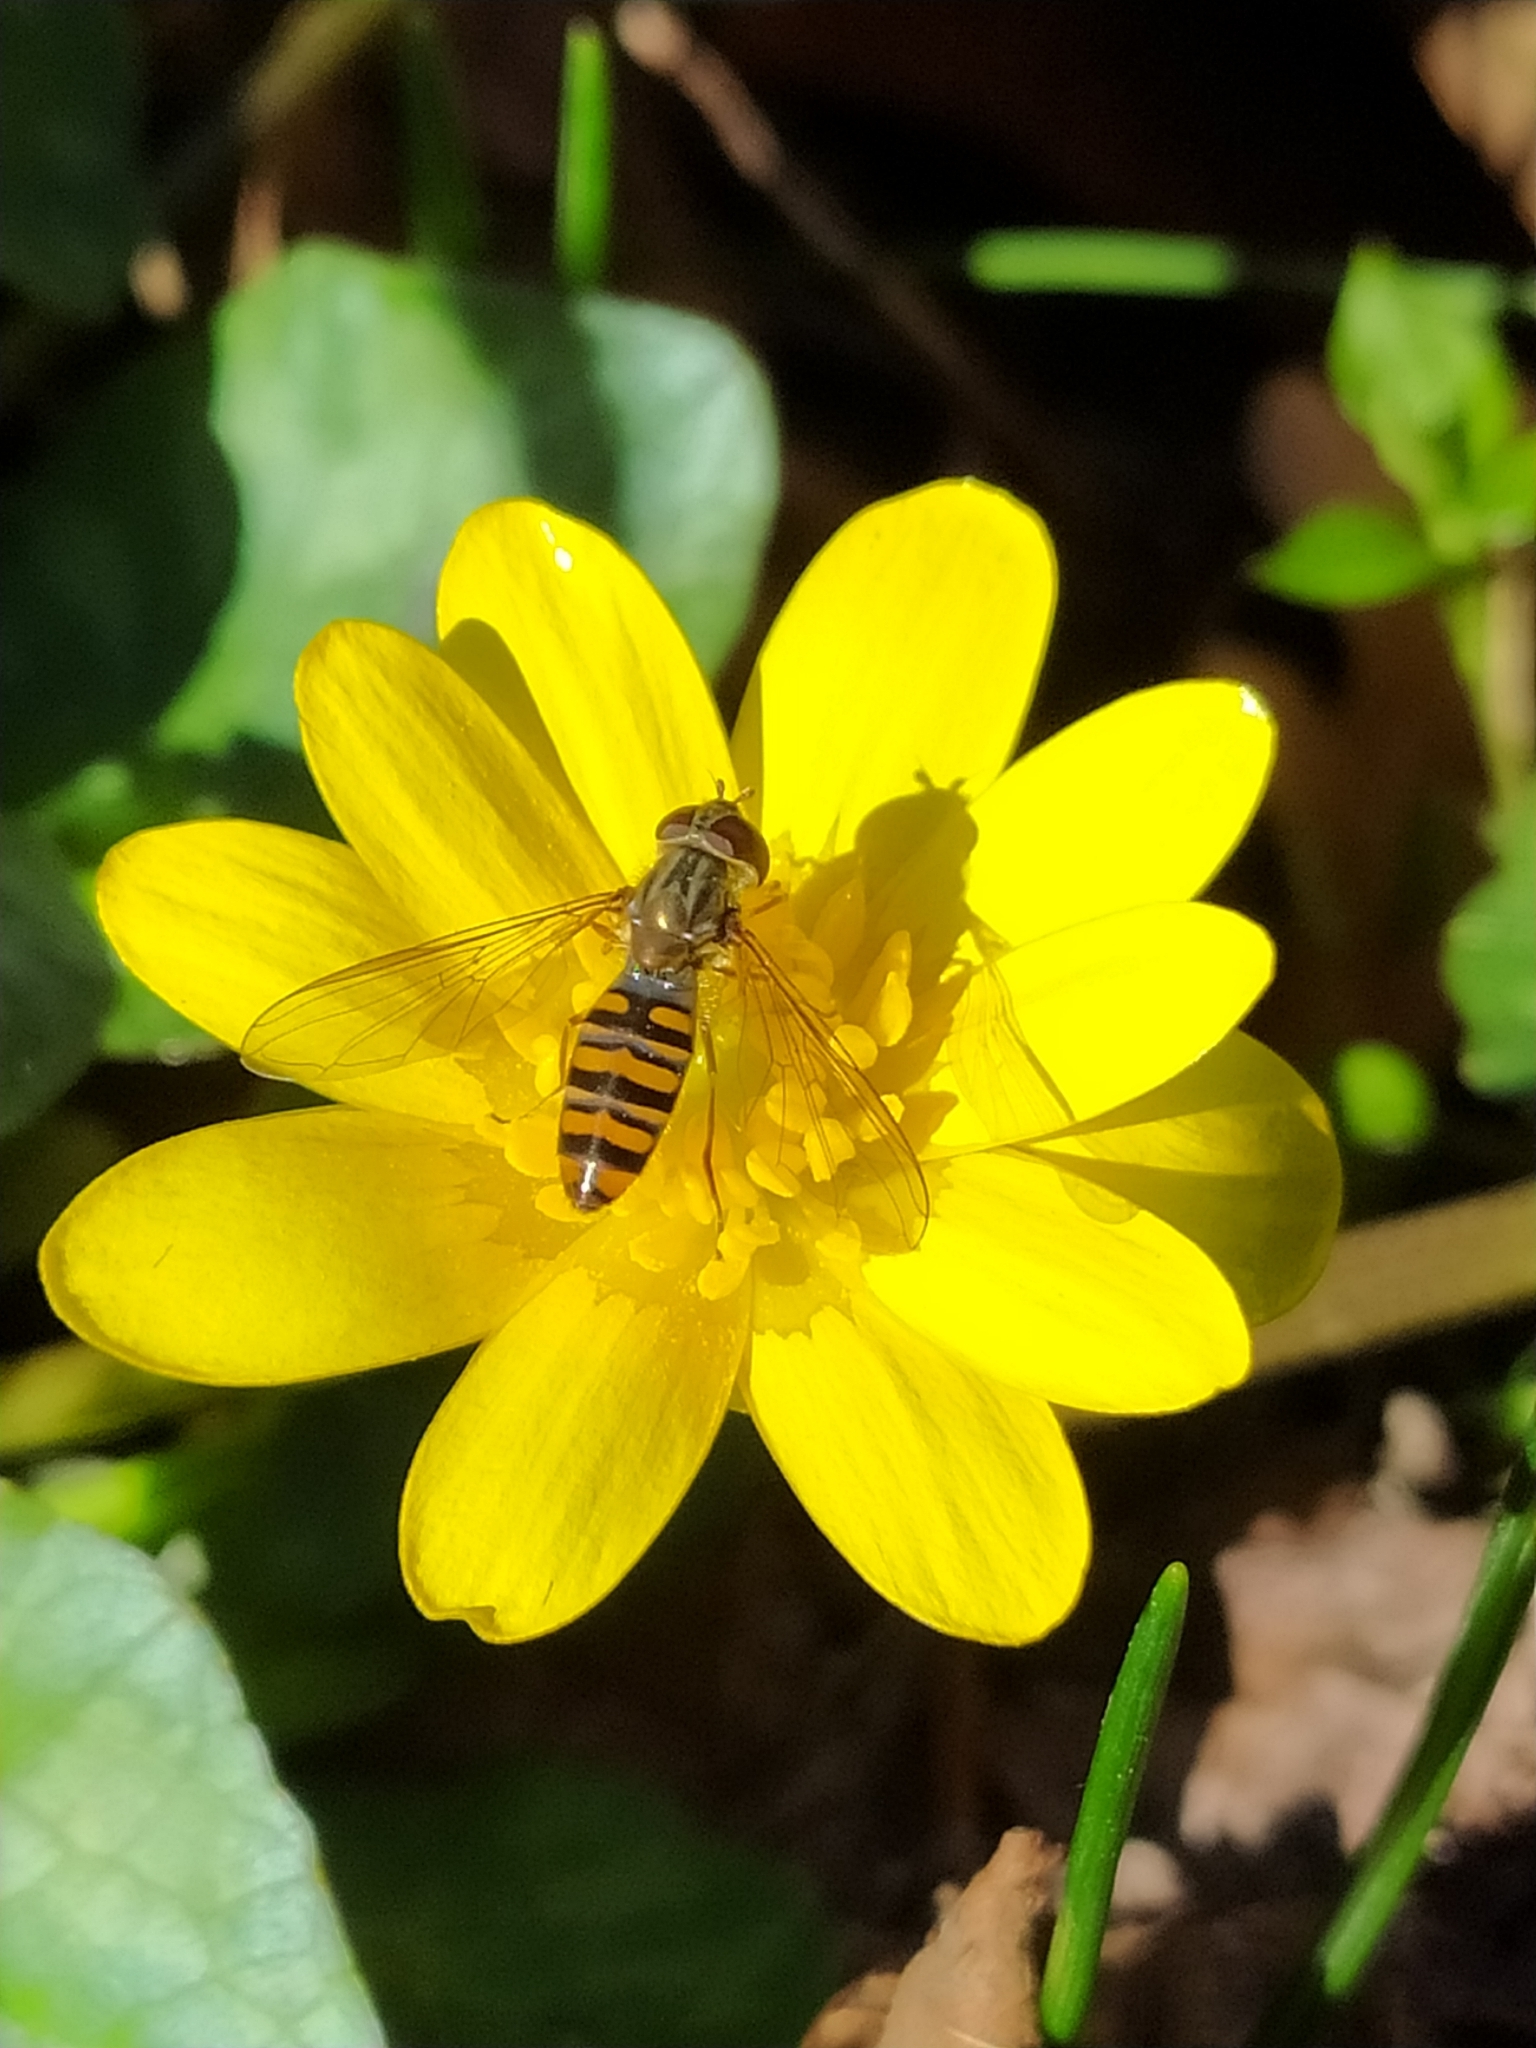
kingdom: Animalia
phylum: Arthropoda
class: Insecta
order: Diptera
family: Syrphidae
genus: Episyrphus
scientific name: Episyrphus balteatus
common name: Marmalade hoverfly
